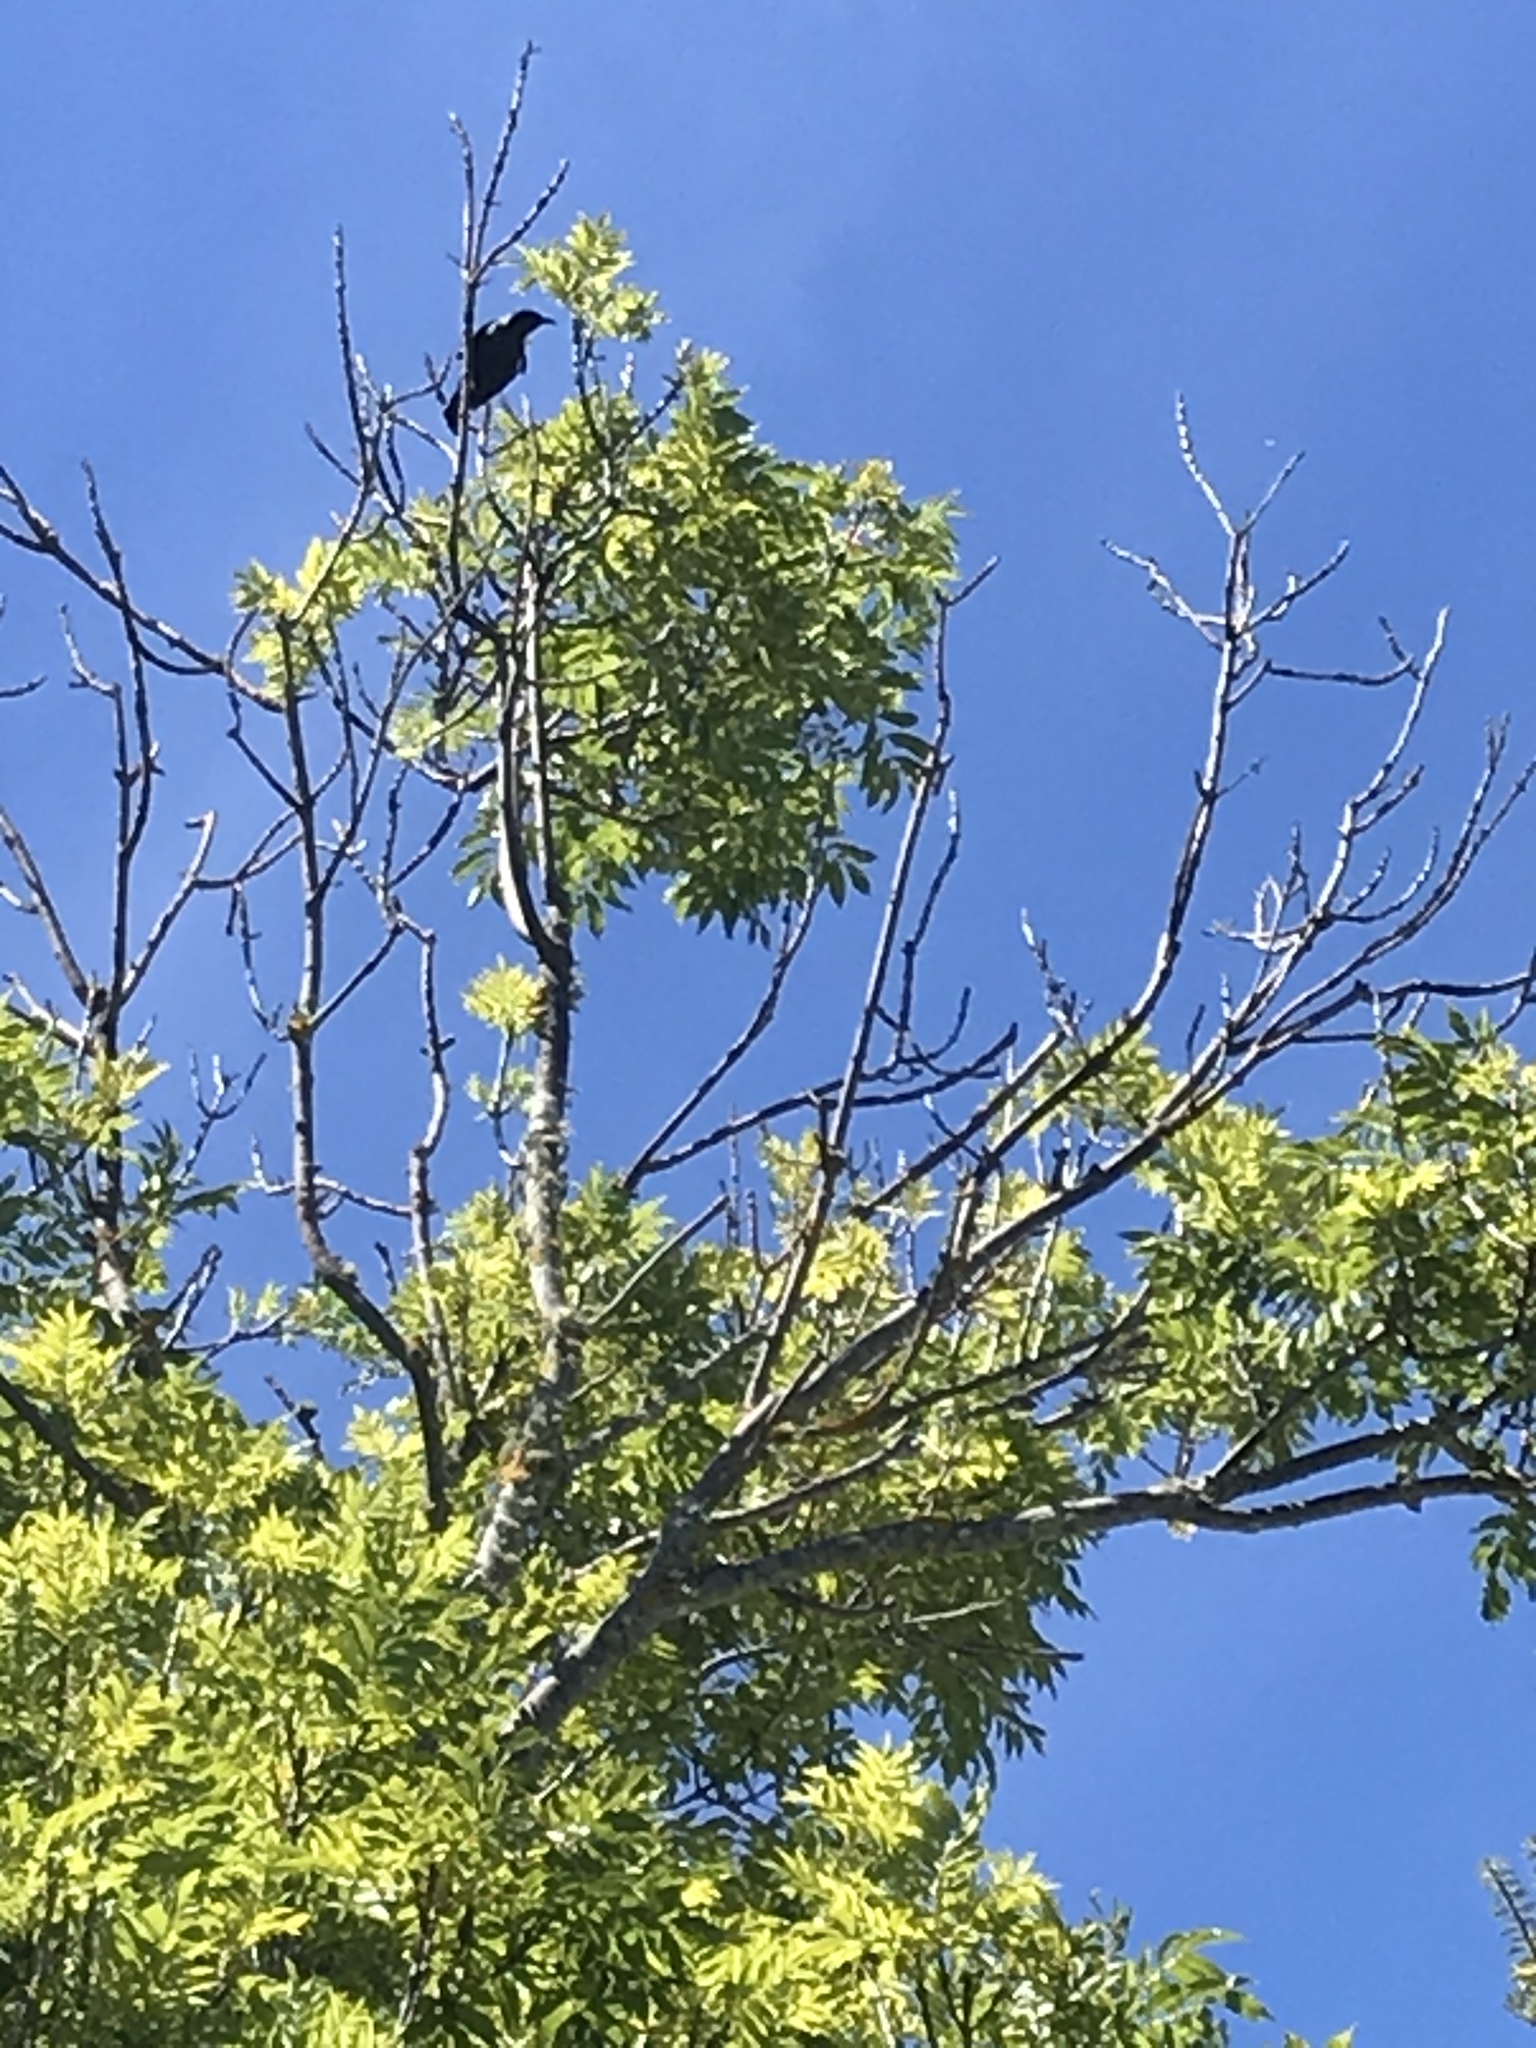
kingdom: Animalia
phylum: Chordata
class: Aves
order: Passeriformes
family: Meliphagidae
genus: Prosthemadera
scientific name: Prosthemadera novaeseelandiae
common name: Tui
